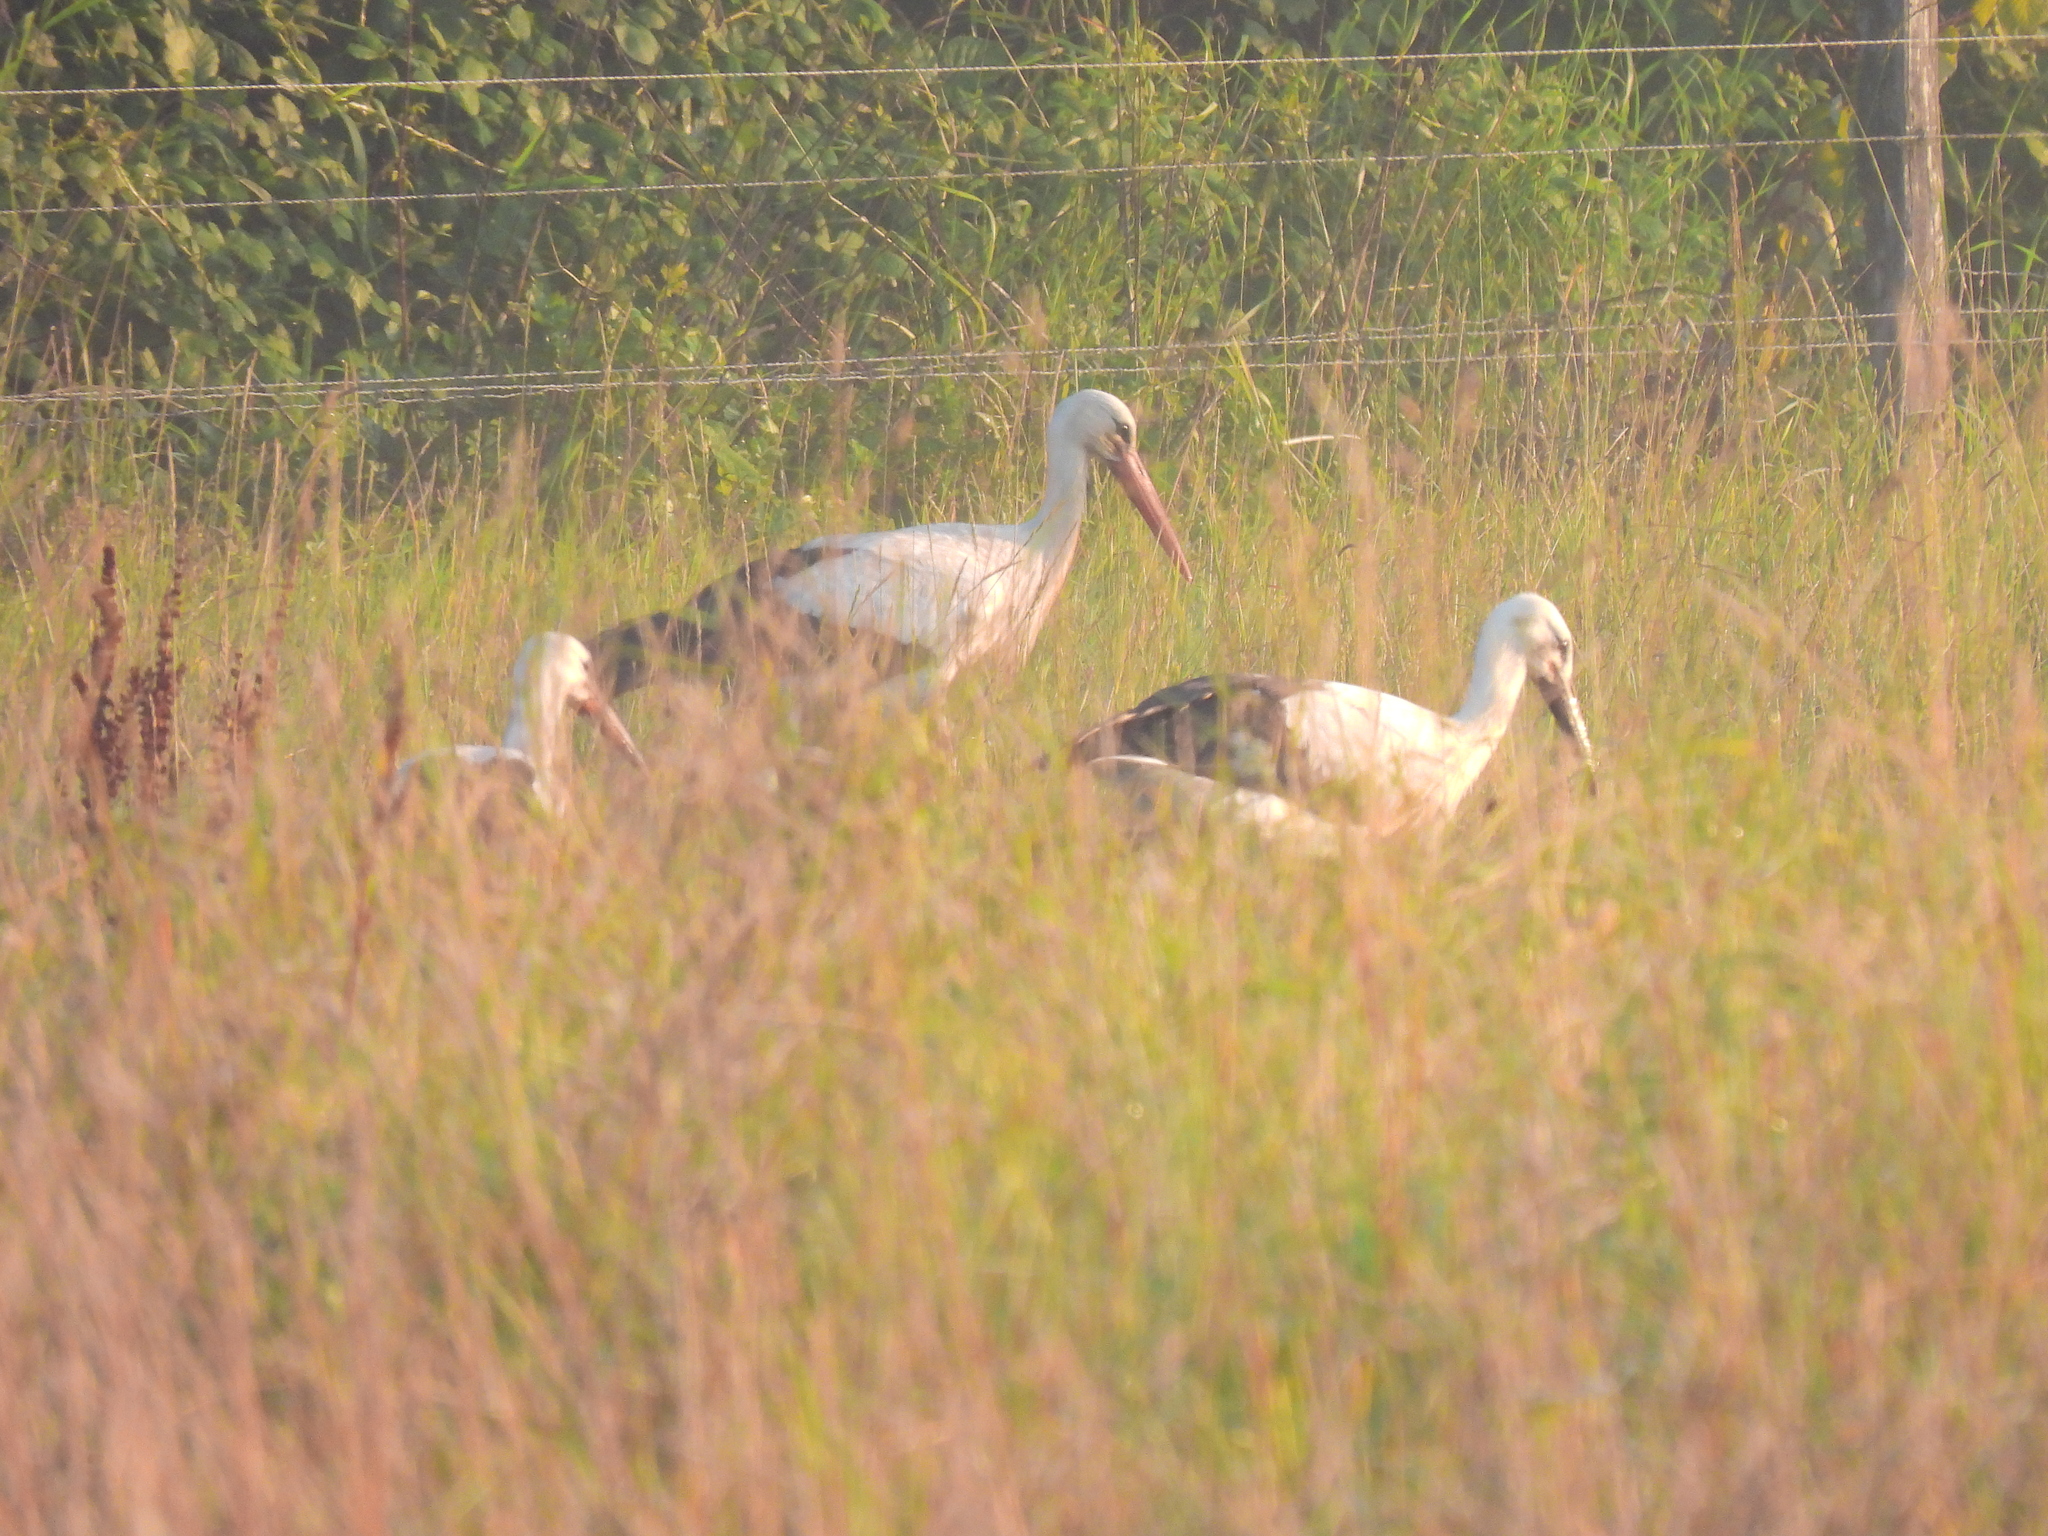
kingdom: Animalia
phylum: Chordata
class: Aves
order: Ciconiiformes
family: Ciconiidae
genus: Ciconia
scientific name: Ciconia ciconia
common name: White stork
